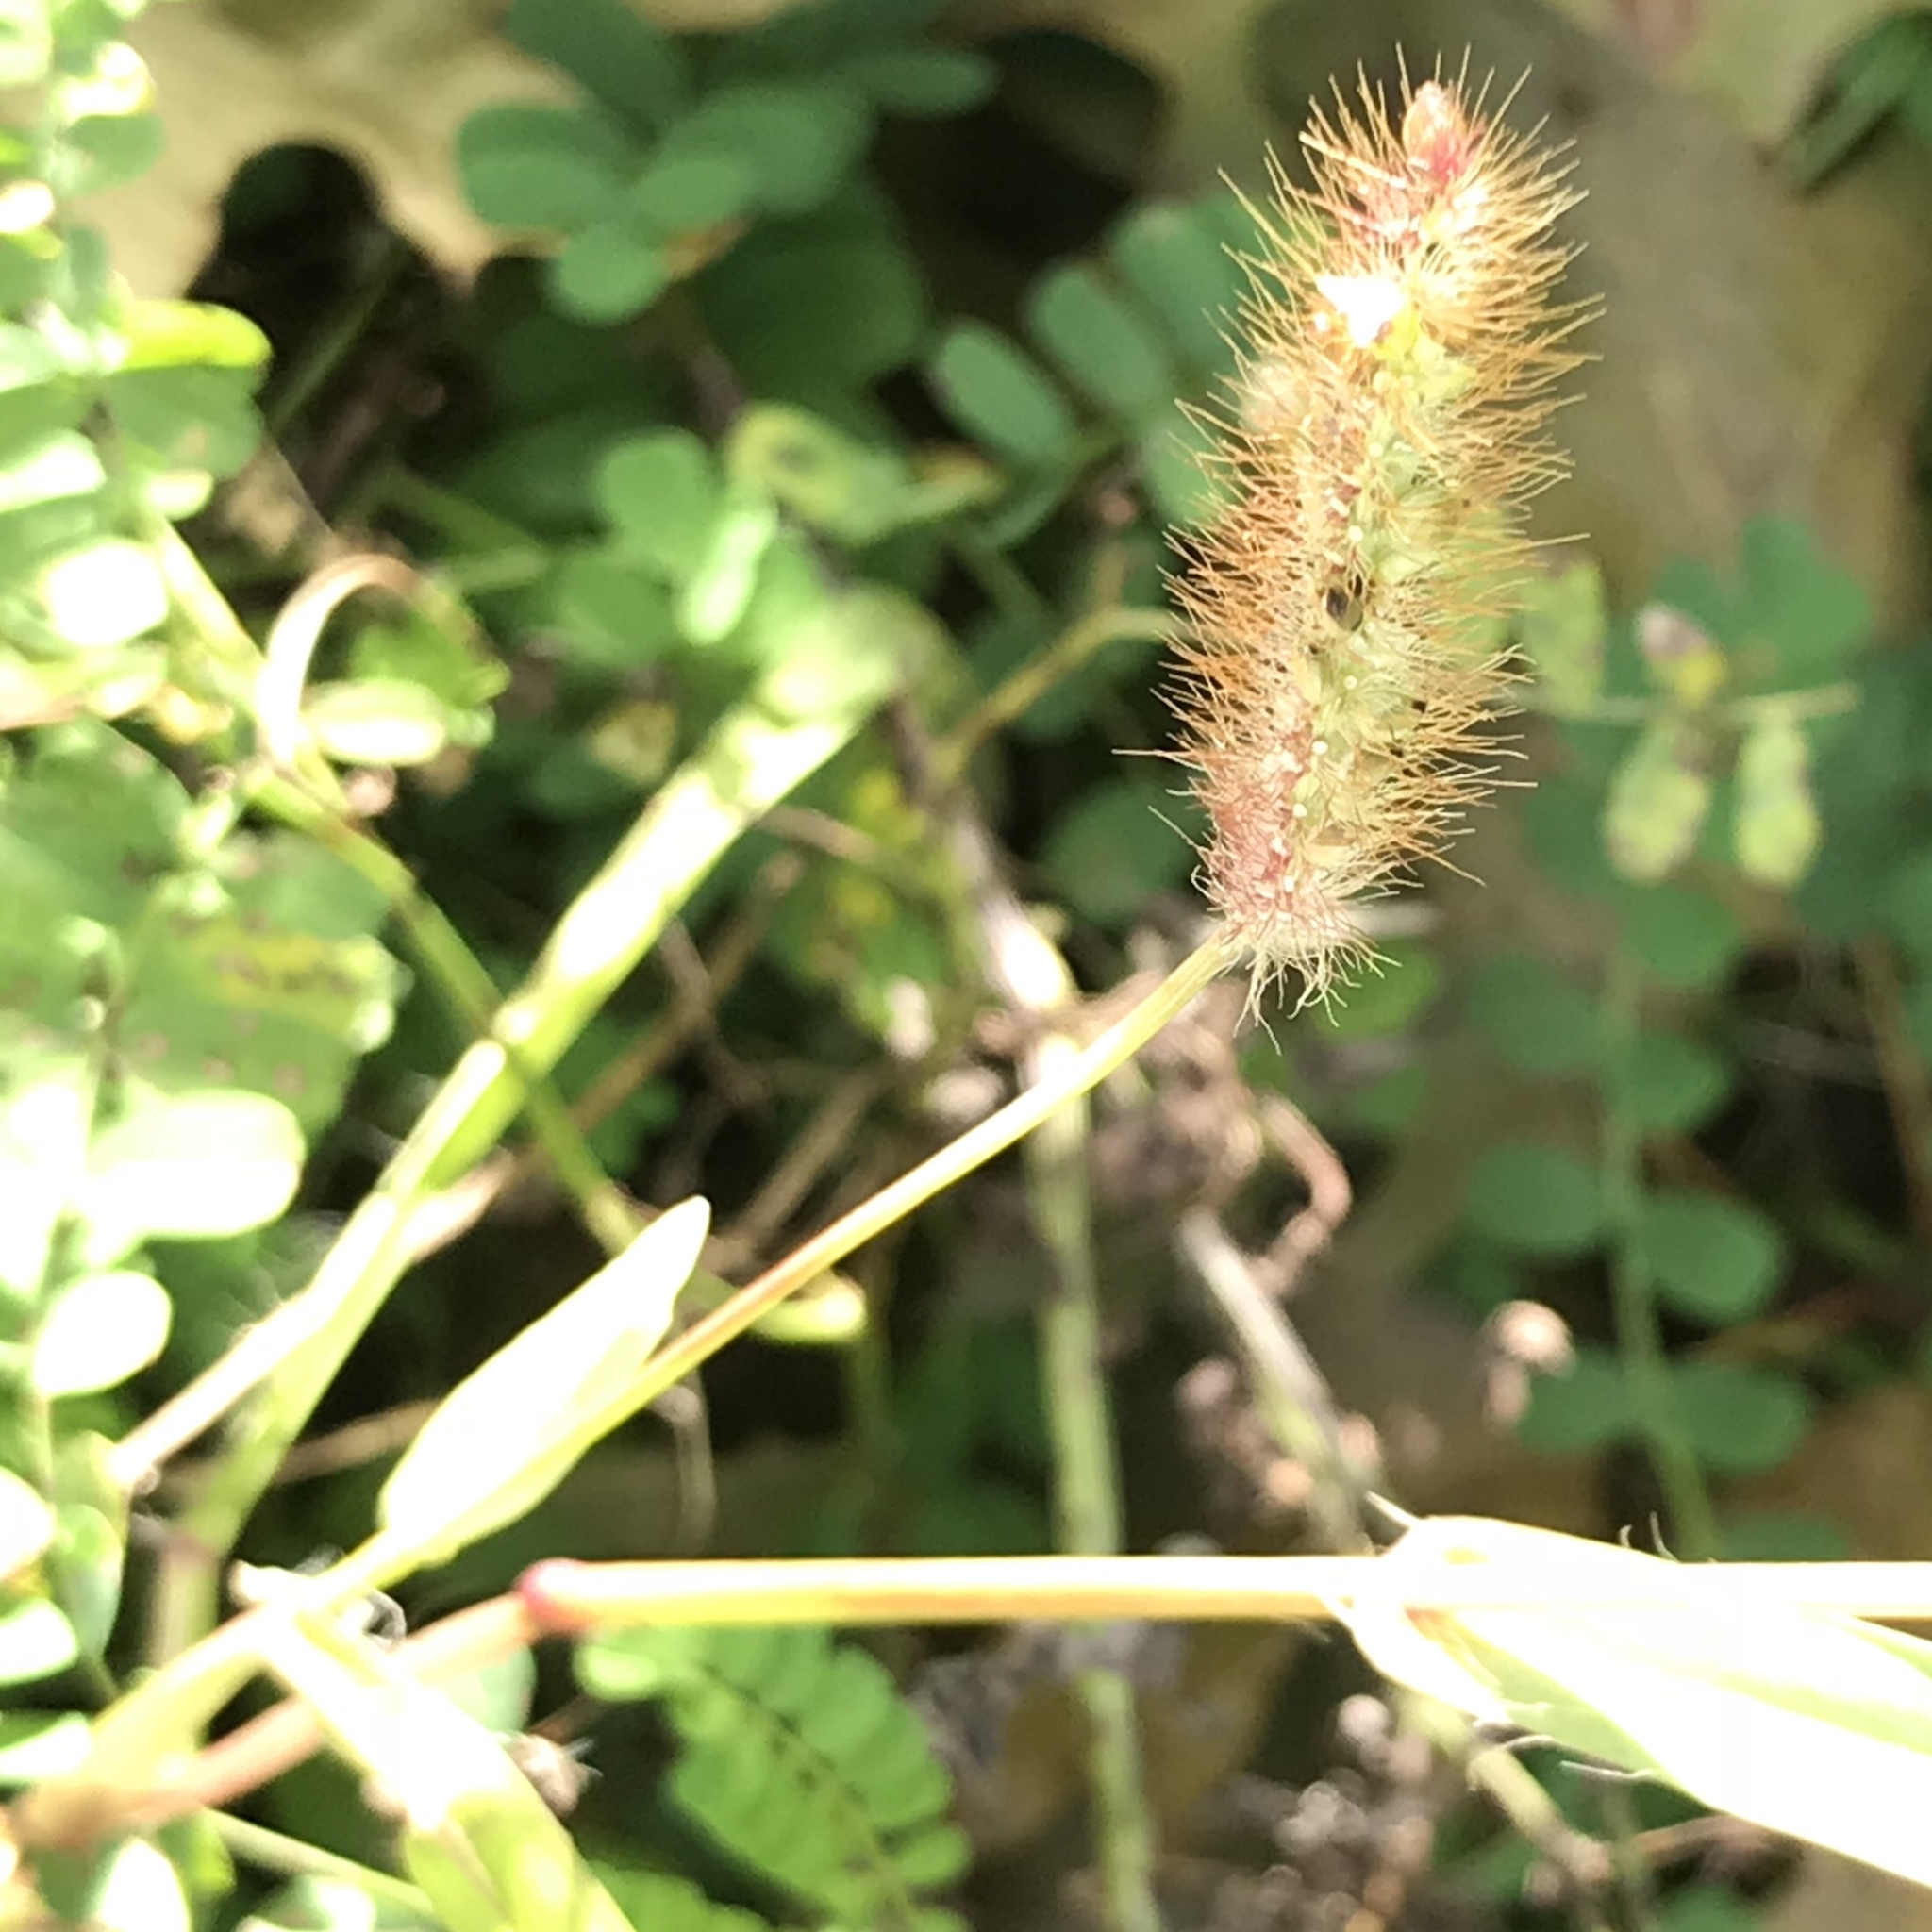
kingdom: Plantae
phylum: Tracheophyta
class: Liliopsida
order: Poales
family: Poaceae
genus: Setaria
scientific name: Setaria pumila
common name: Yellow bristle-grass
